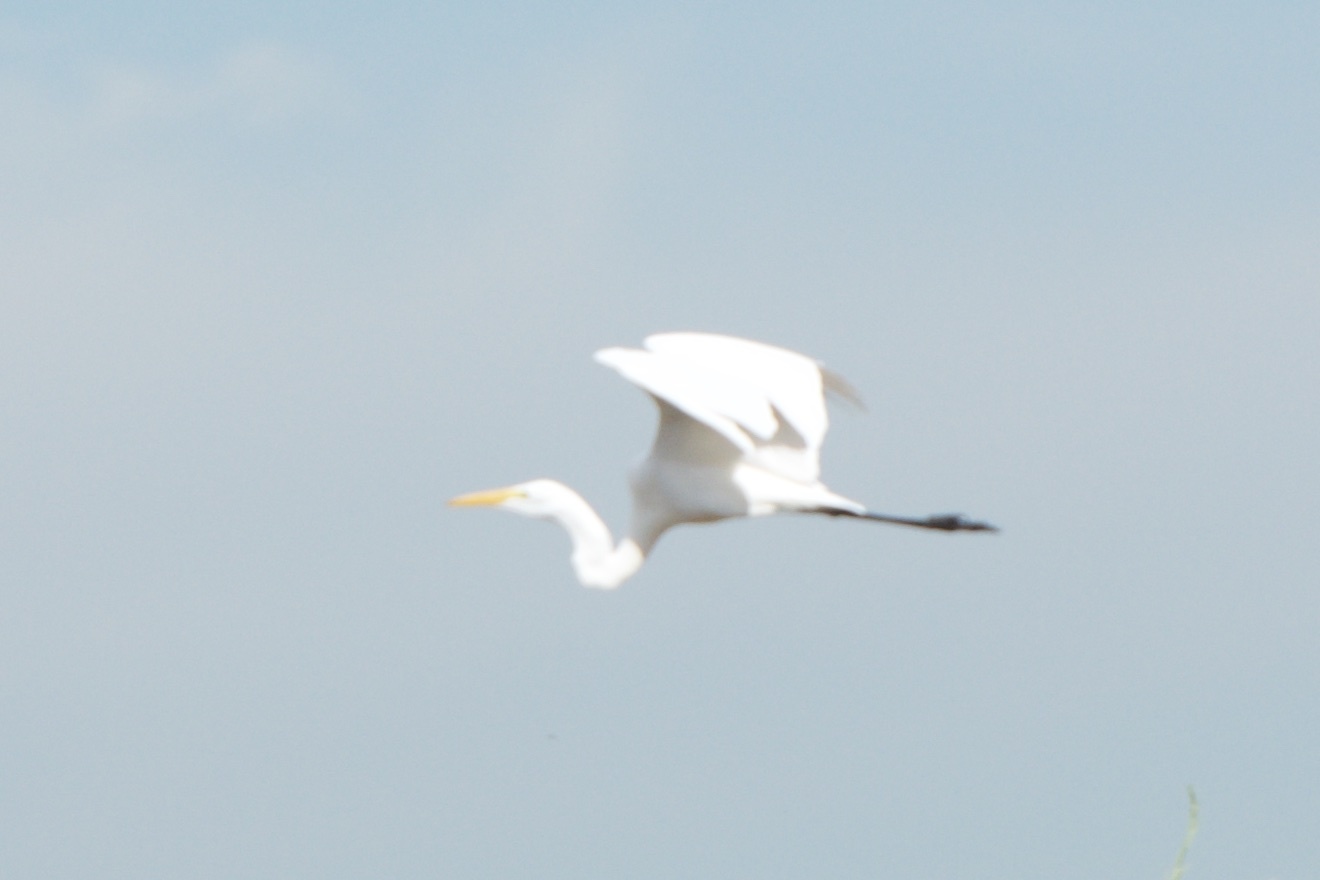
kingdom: Animalia
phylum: Chordata
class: Aves
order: Pelecaniformes
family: Ardeidae
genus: Ardea
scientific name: Ardea alba
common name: Great egret
